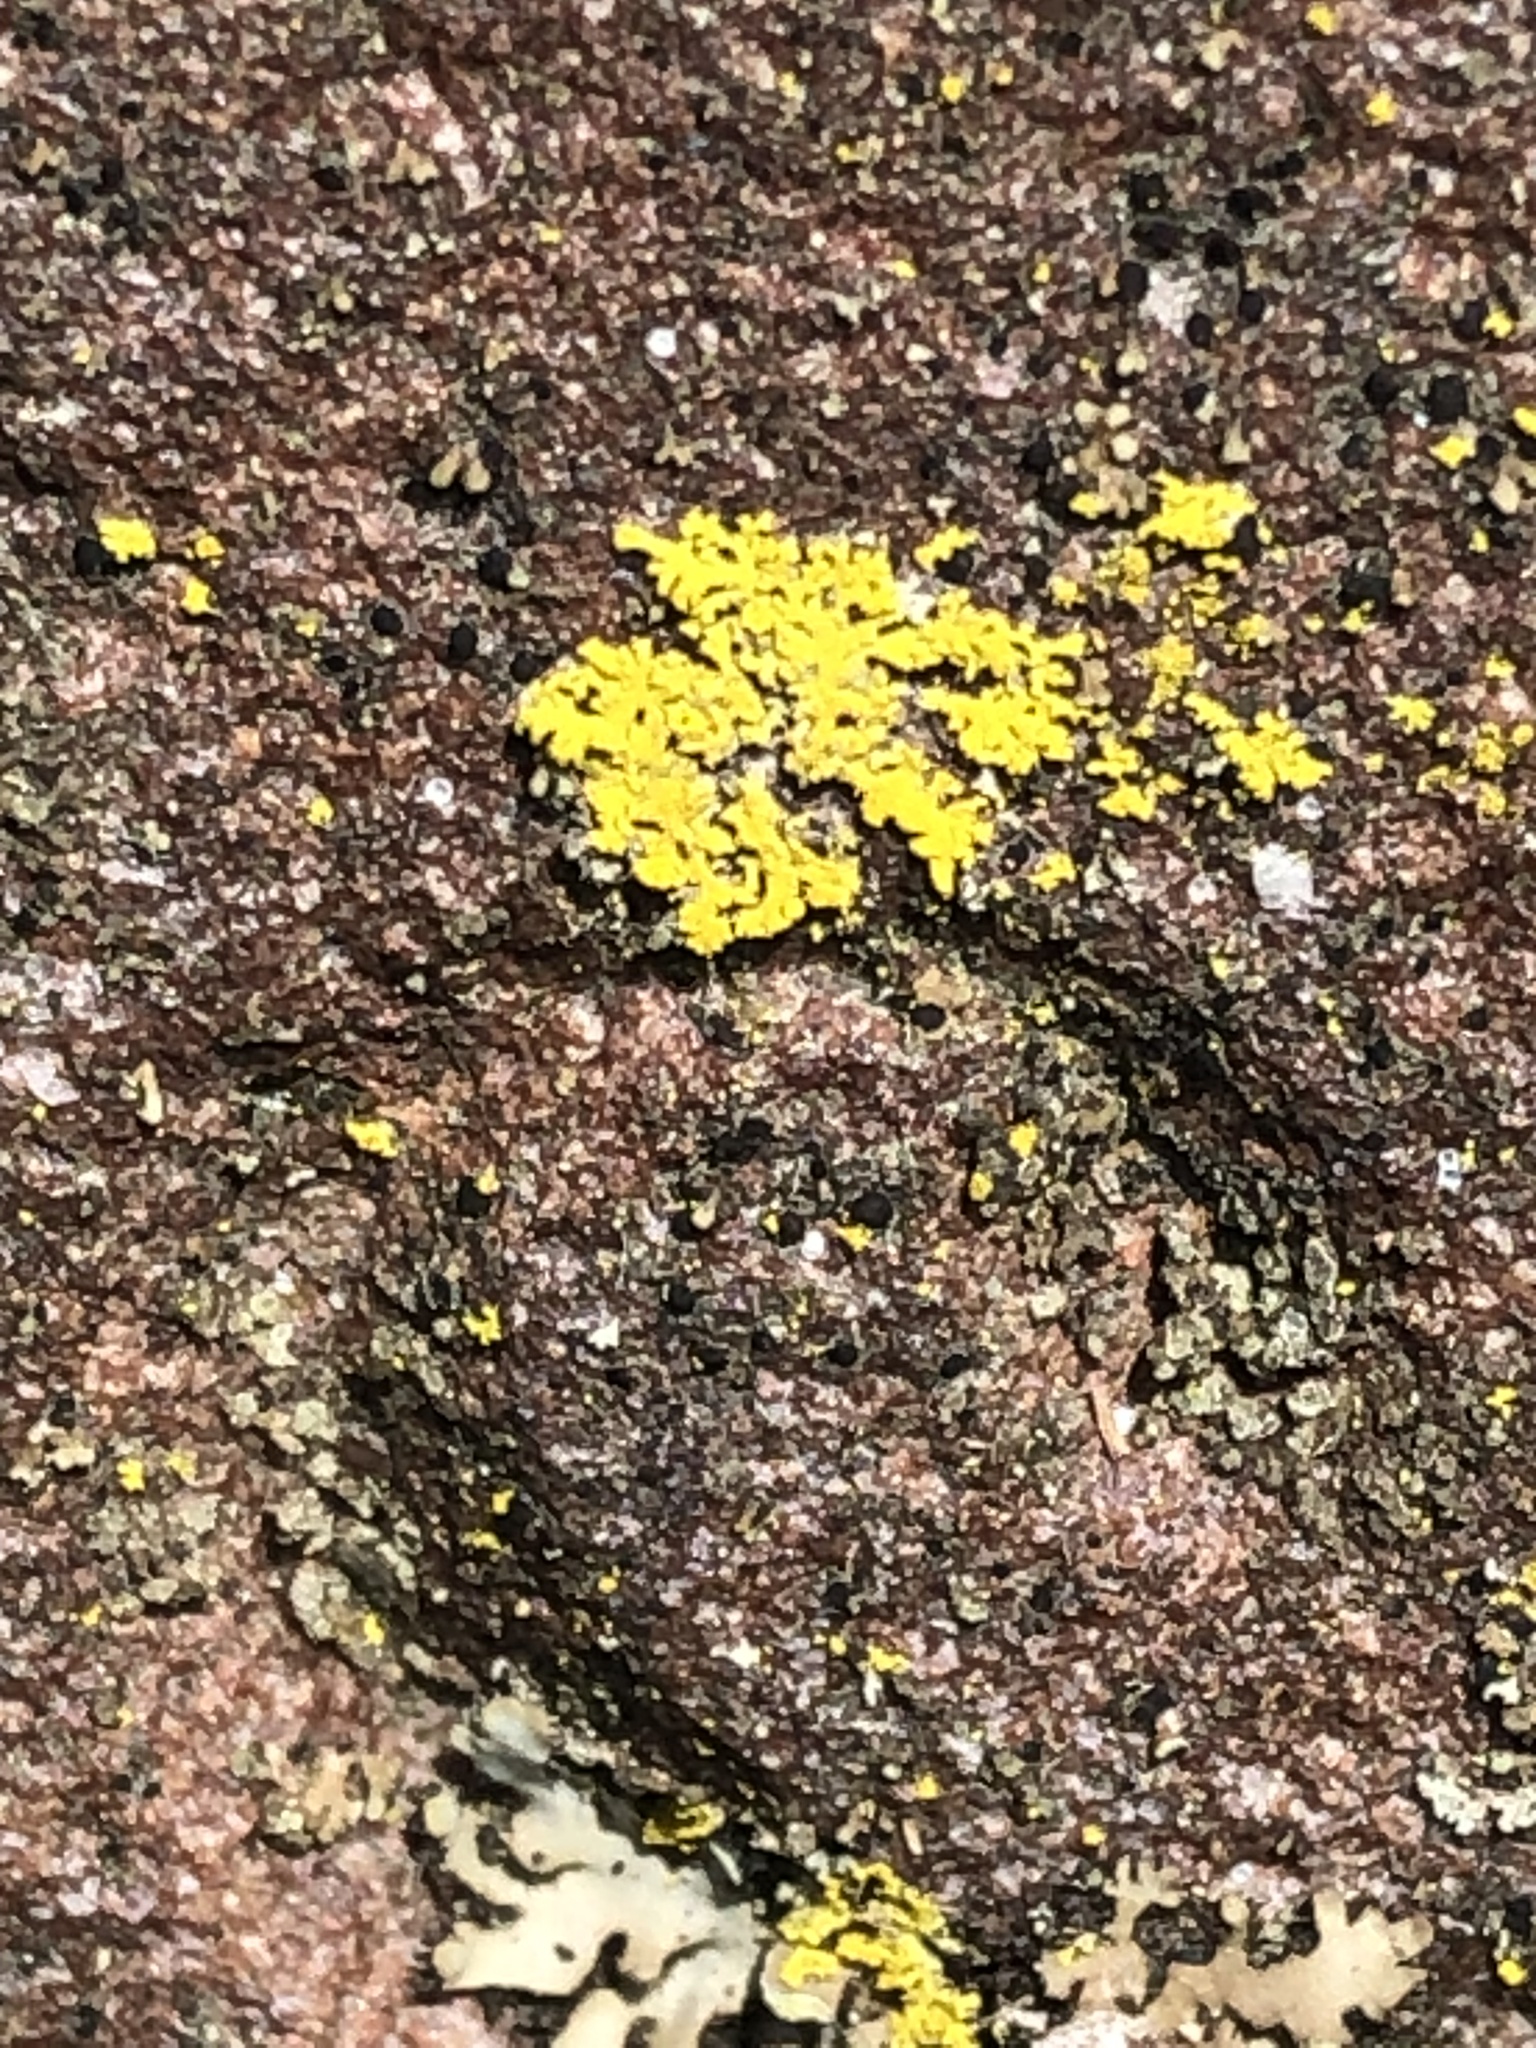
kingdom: Fungi
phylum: Ascomycota
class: Candelariomycetes
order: Candelariales
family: Candelariaceae
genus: Candelaria
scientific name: Candelaria concolor
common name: Candleflame lichen
